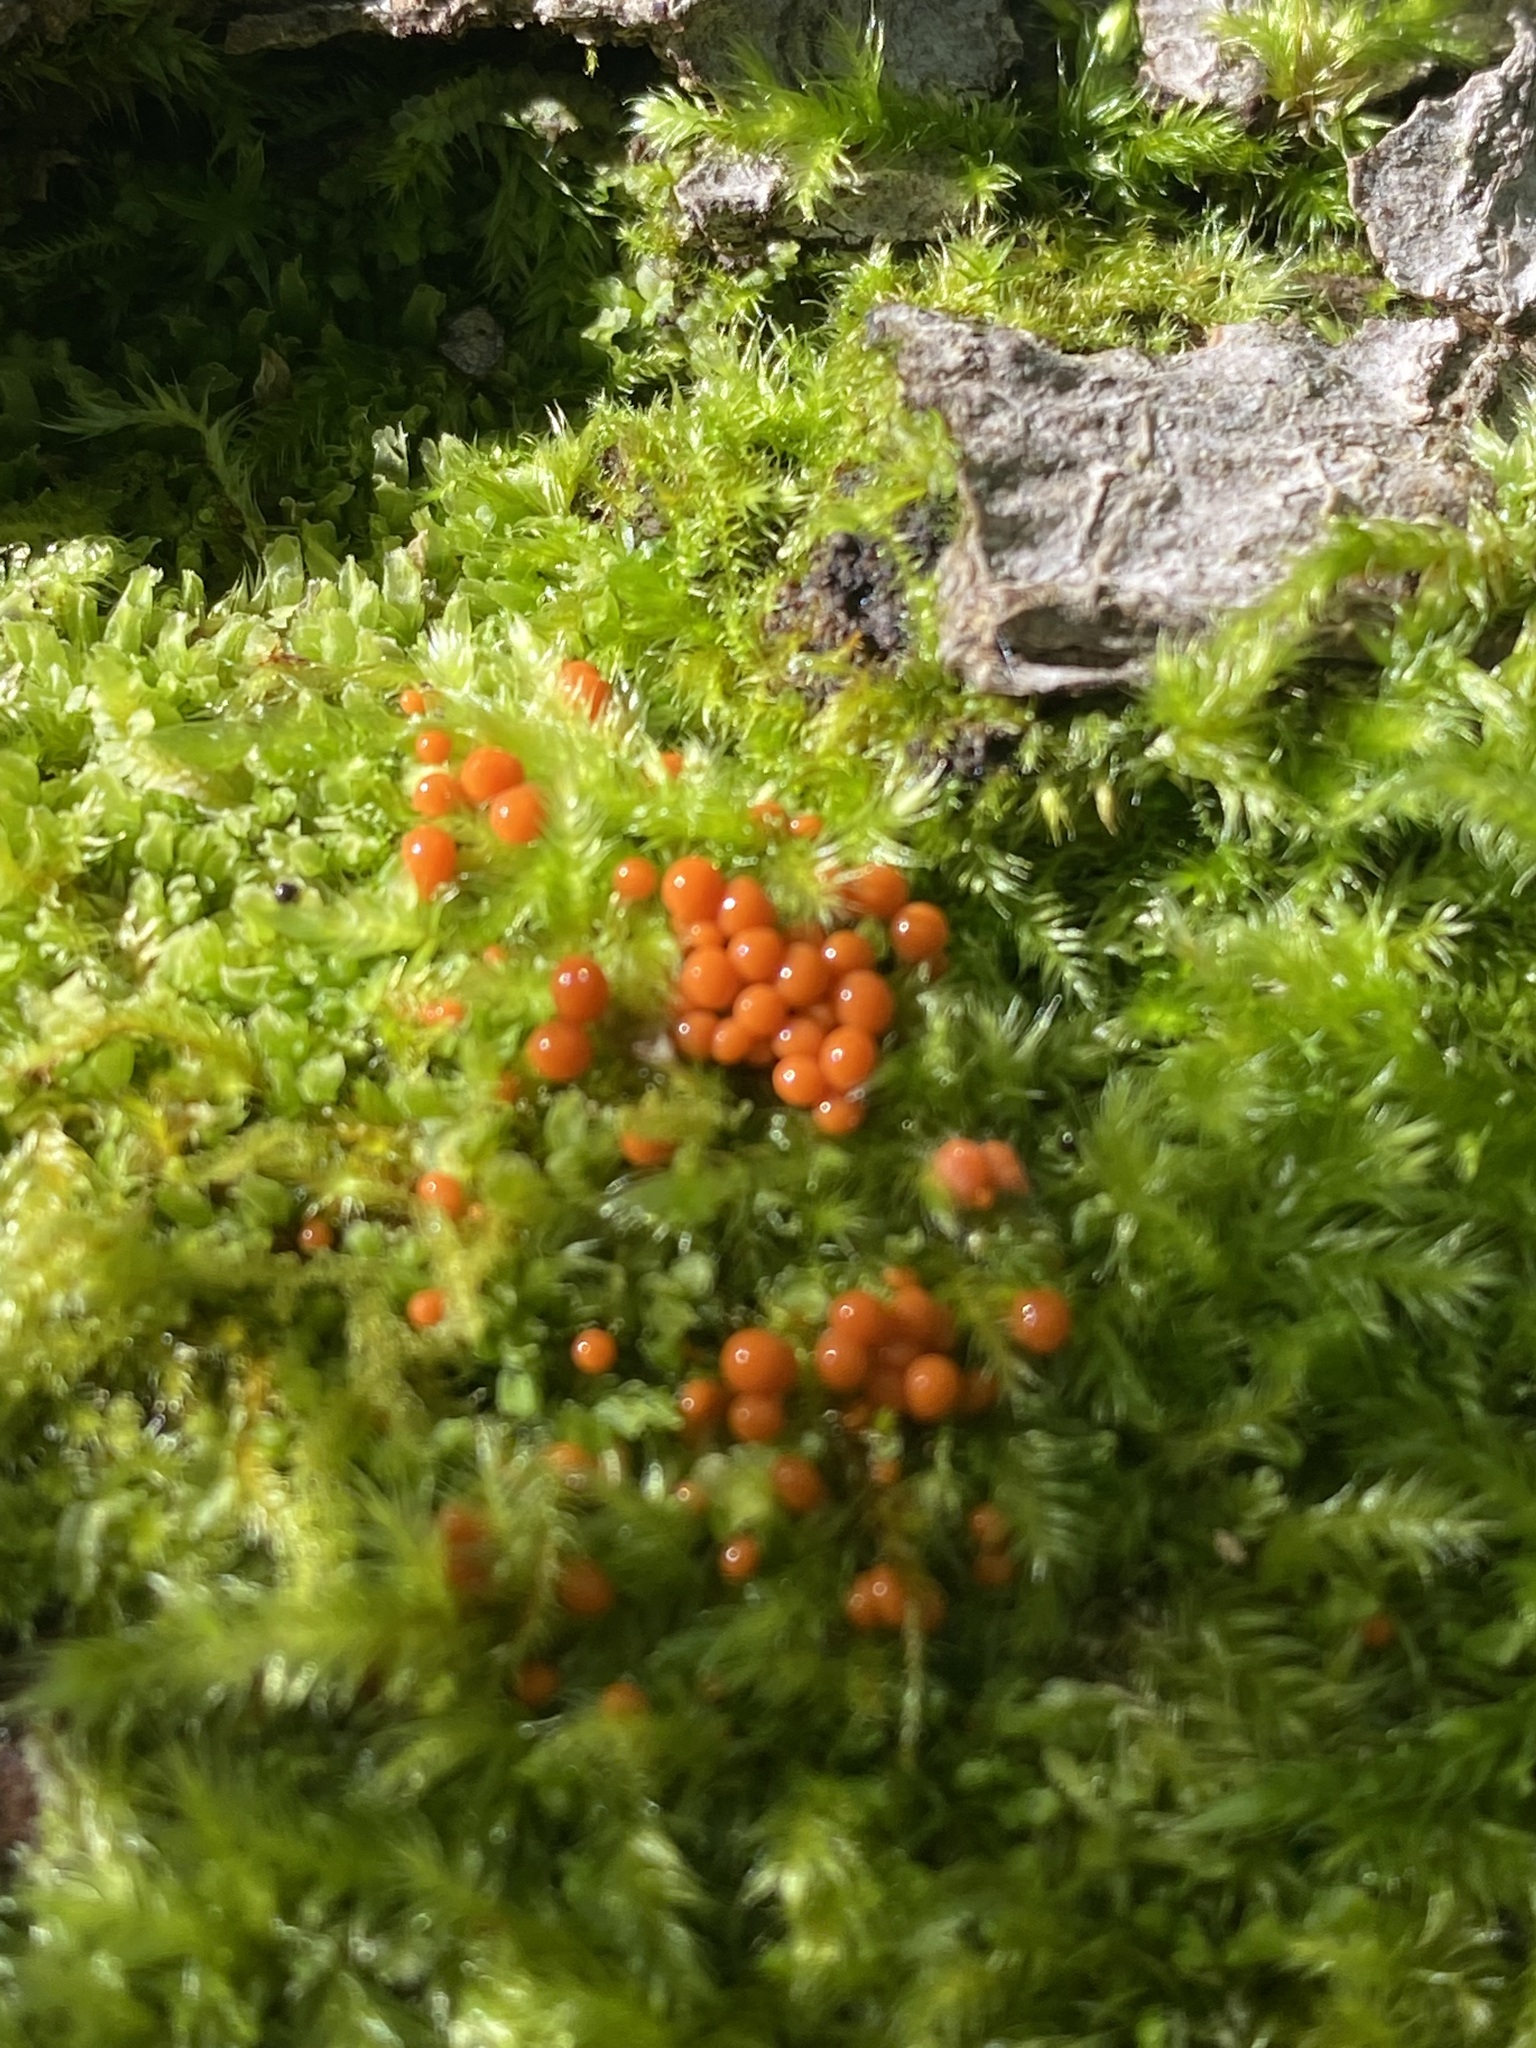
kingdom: Protozoa
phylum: Mycetozoa
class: Myxomycetes
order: Trichiales
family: Arcyriaceae
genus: Hemitrichia
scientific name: Hemitrichia decipiens
